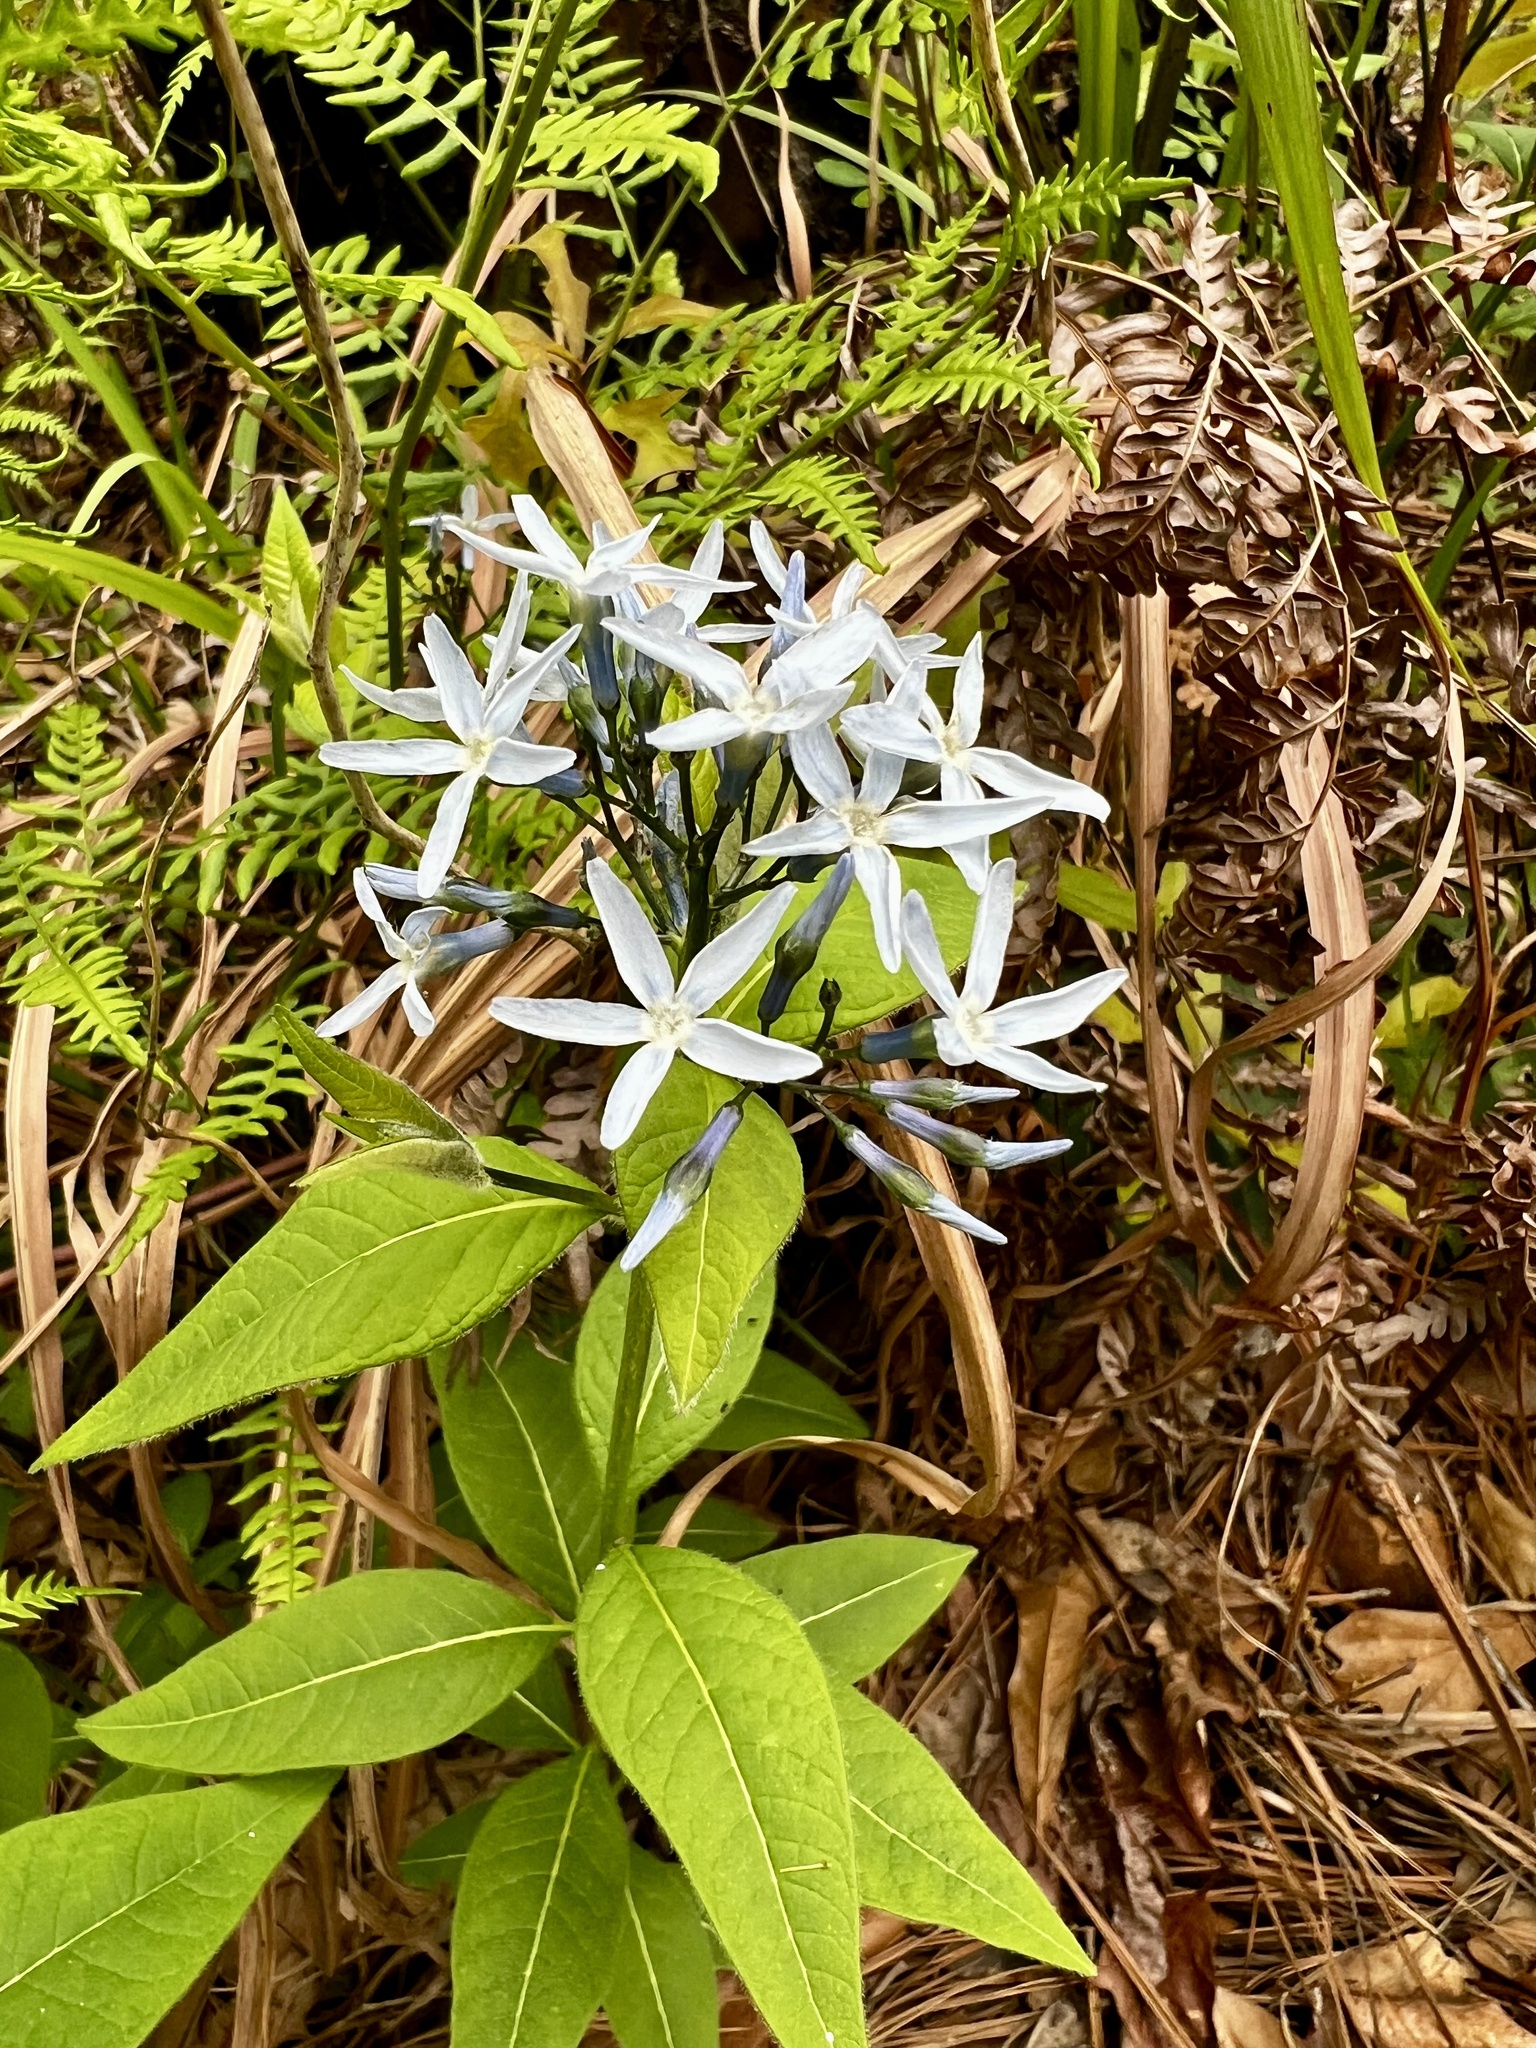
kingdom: Plantae
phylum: Tracheophyta
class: Magnoliopsida
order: Gentianales
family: Apocynaceae
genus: Amsonia
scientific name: Amsonia tabernaemontana
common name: Texas-star
